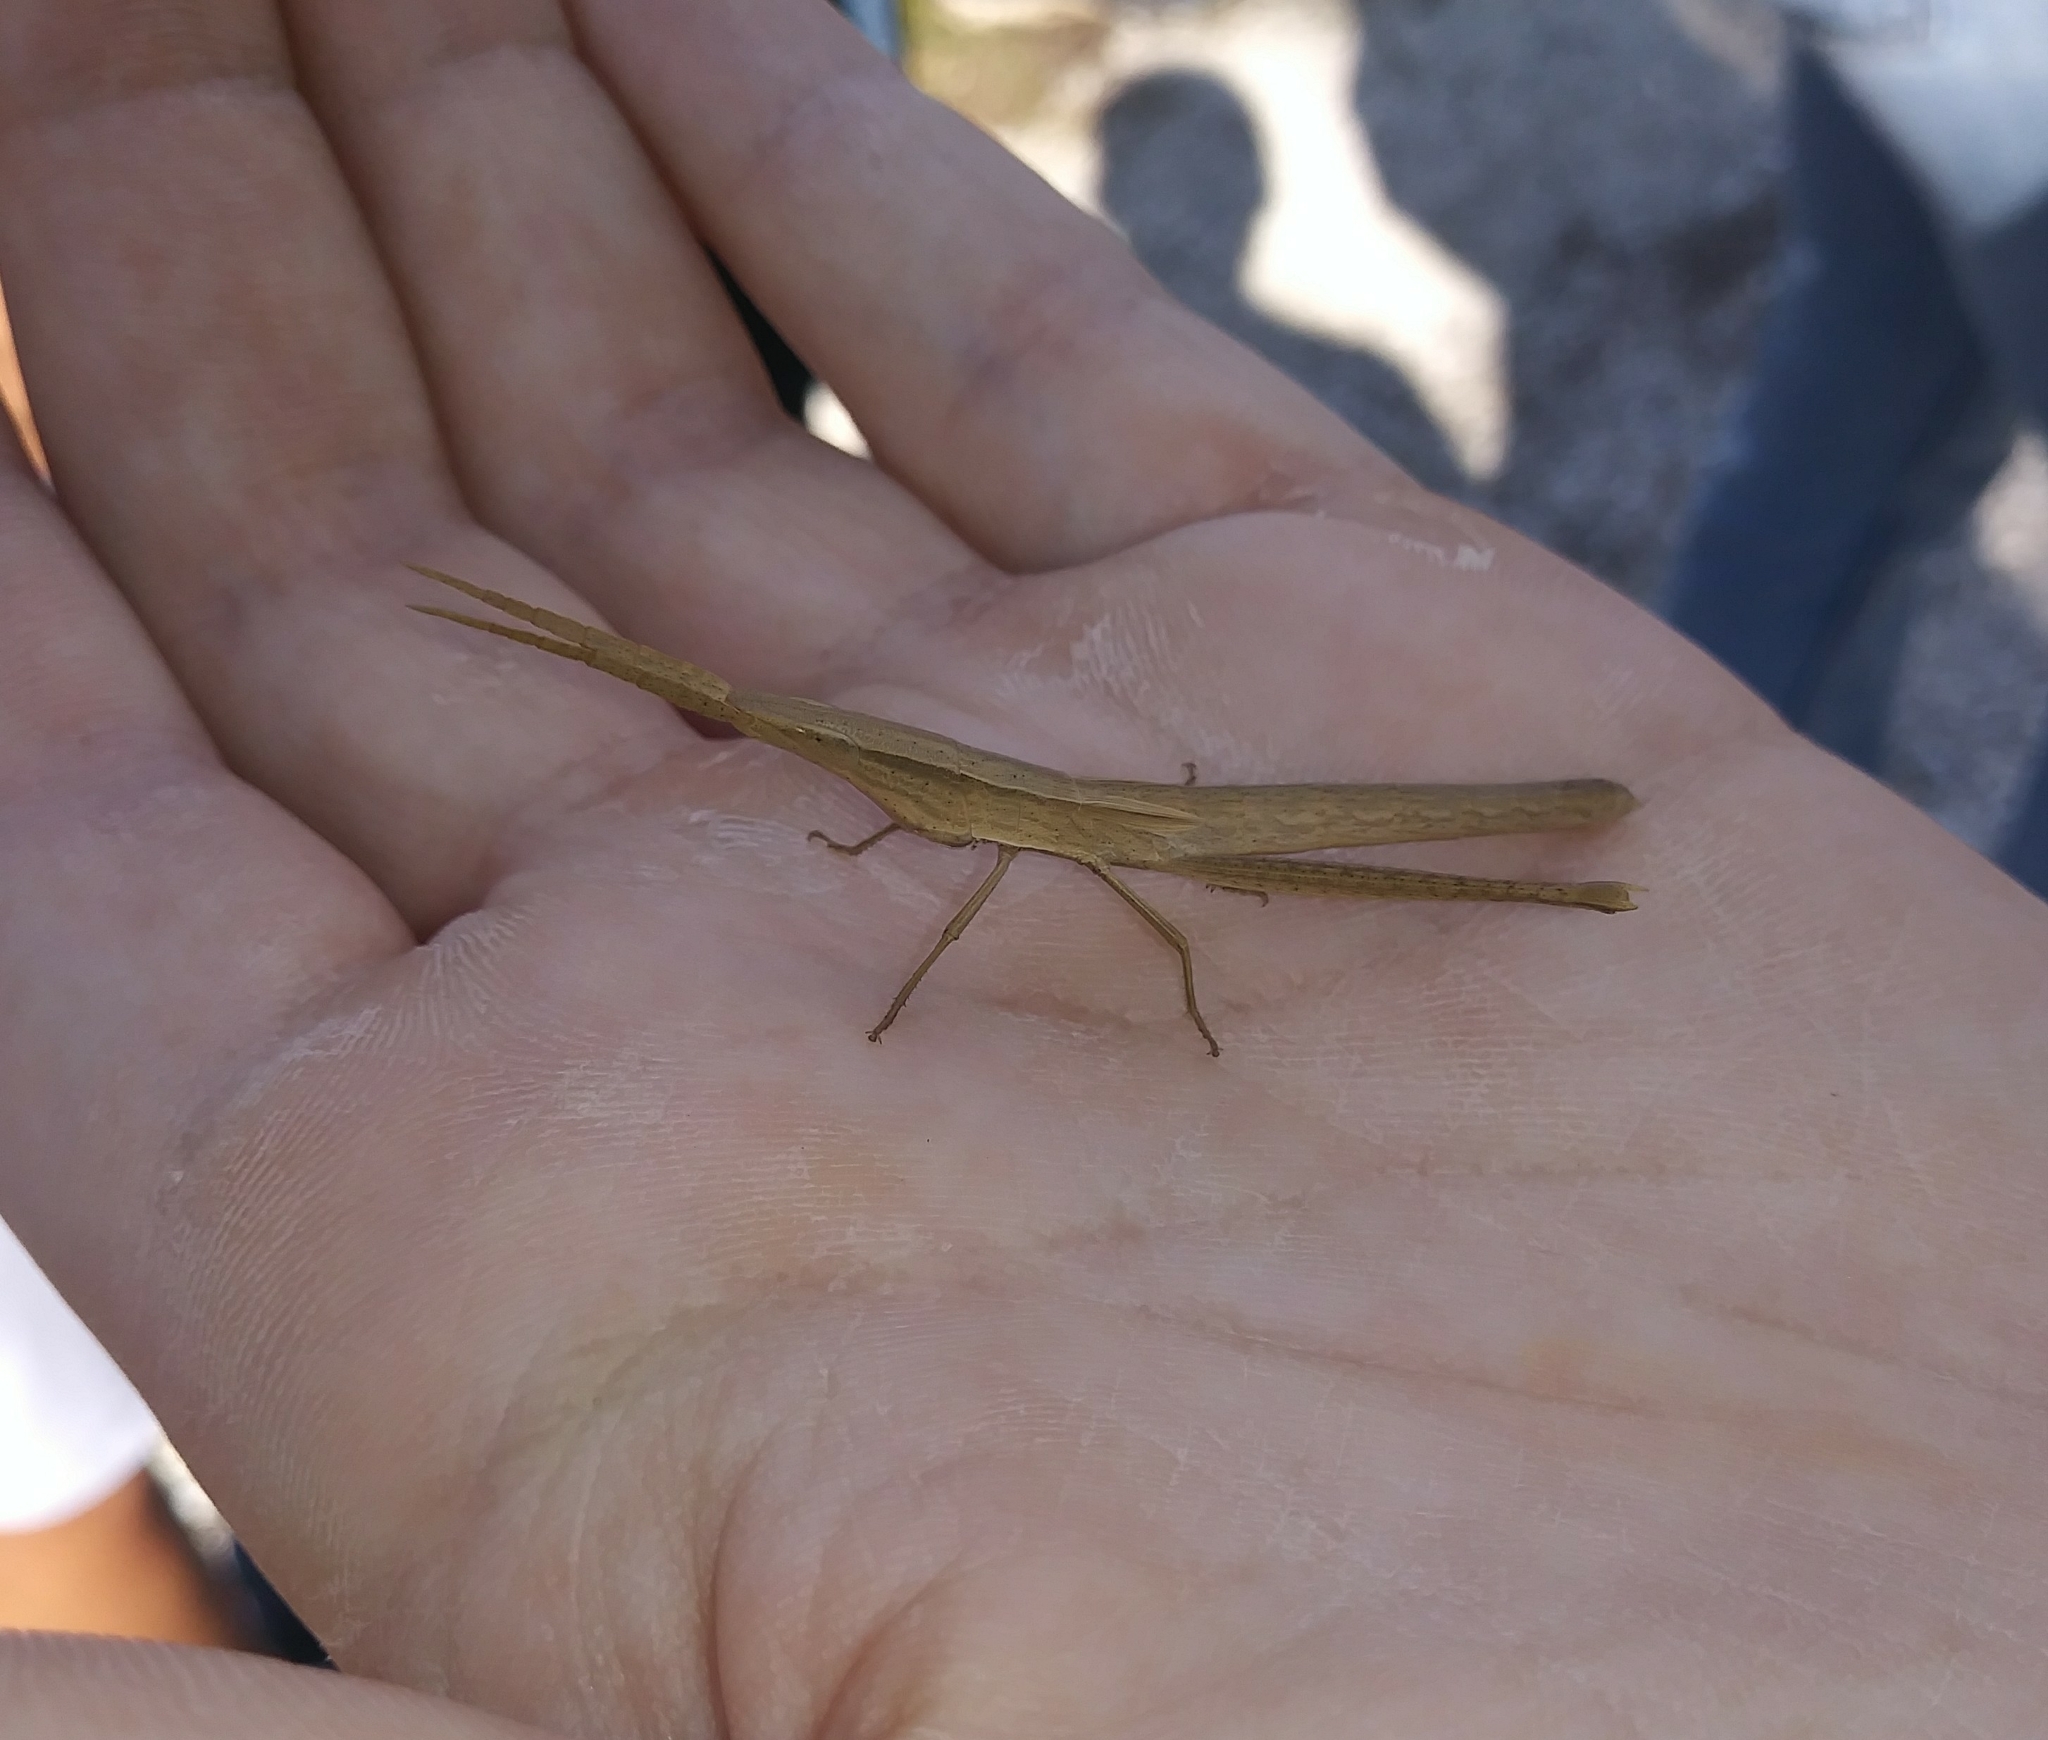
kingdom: Animalia
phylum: Arthropoda
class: Insecta
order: Orthoptera
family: Acrididae
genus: Achurum
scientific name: Achurum carinatum
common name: Long-headed toothpick grasshopper
